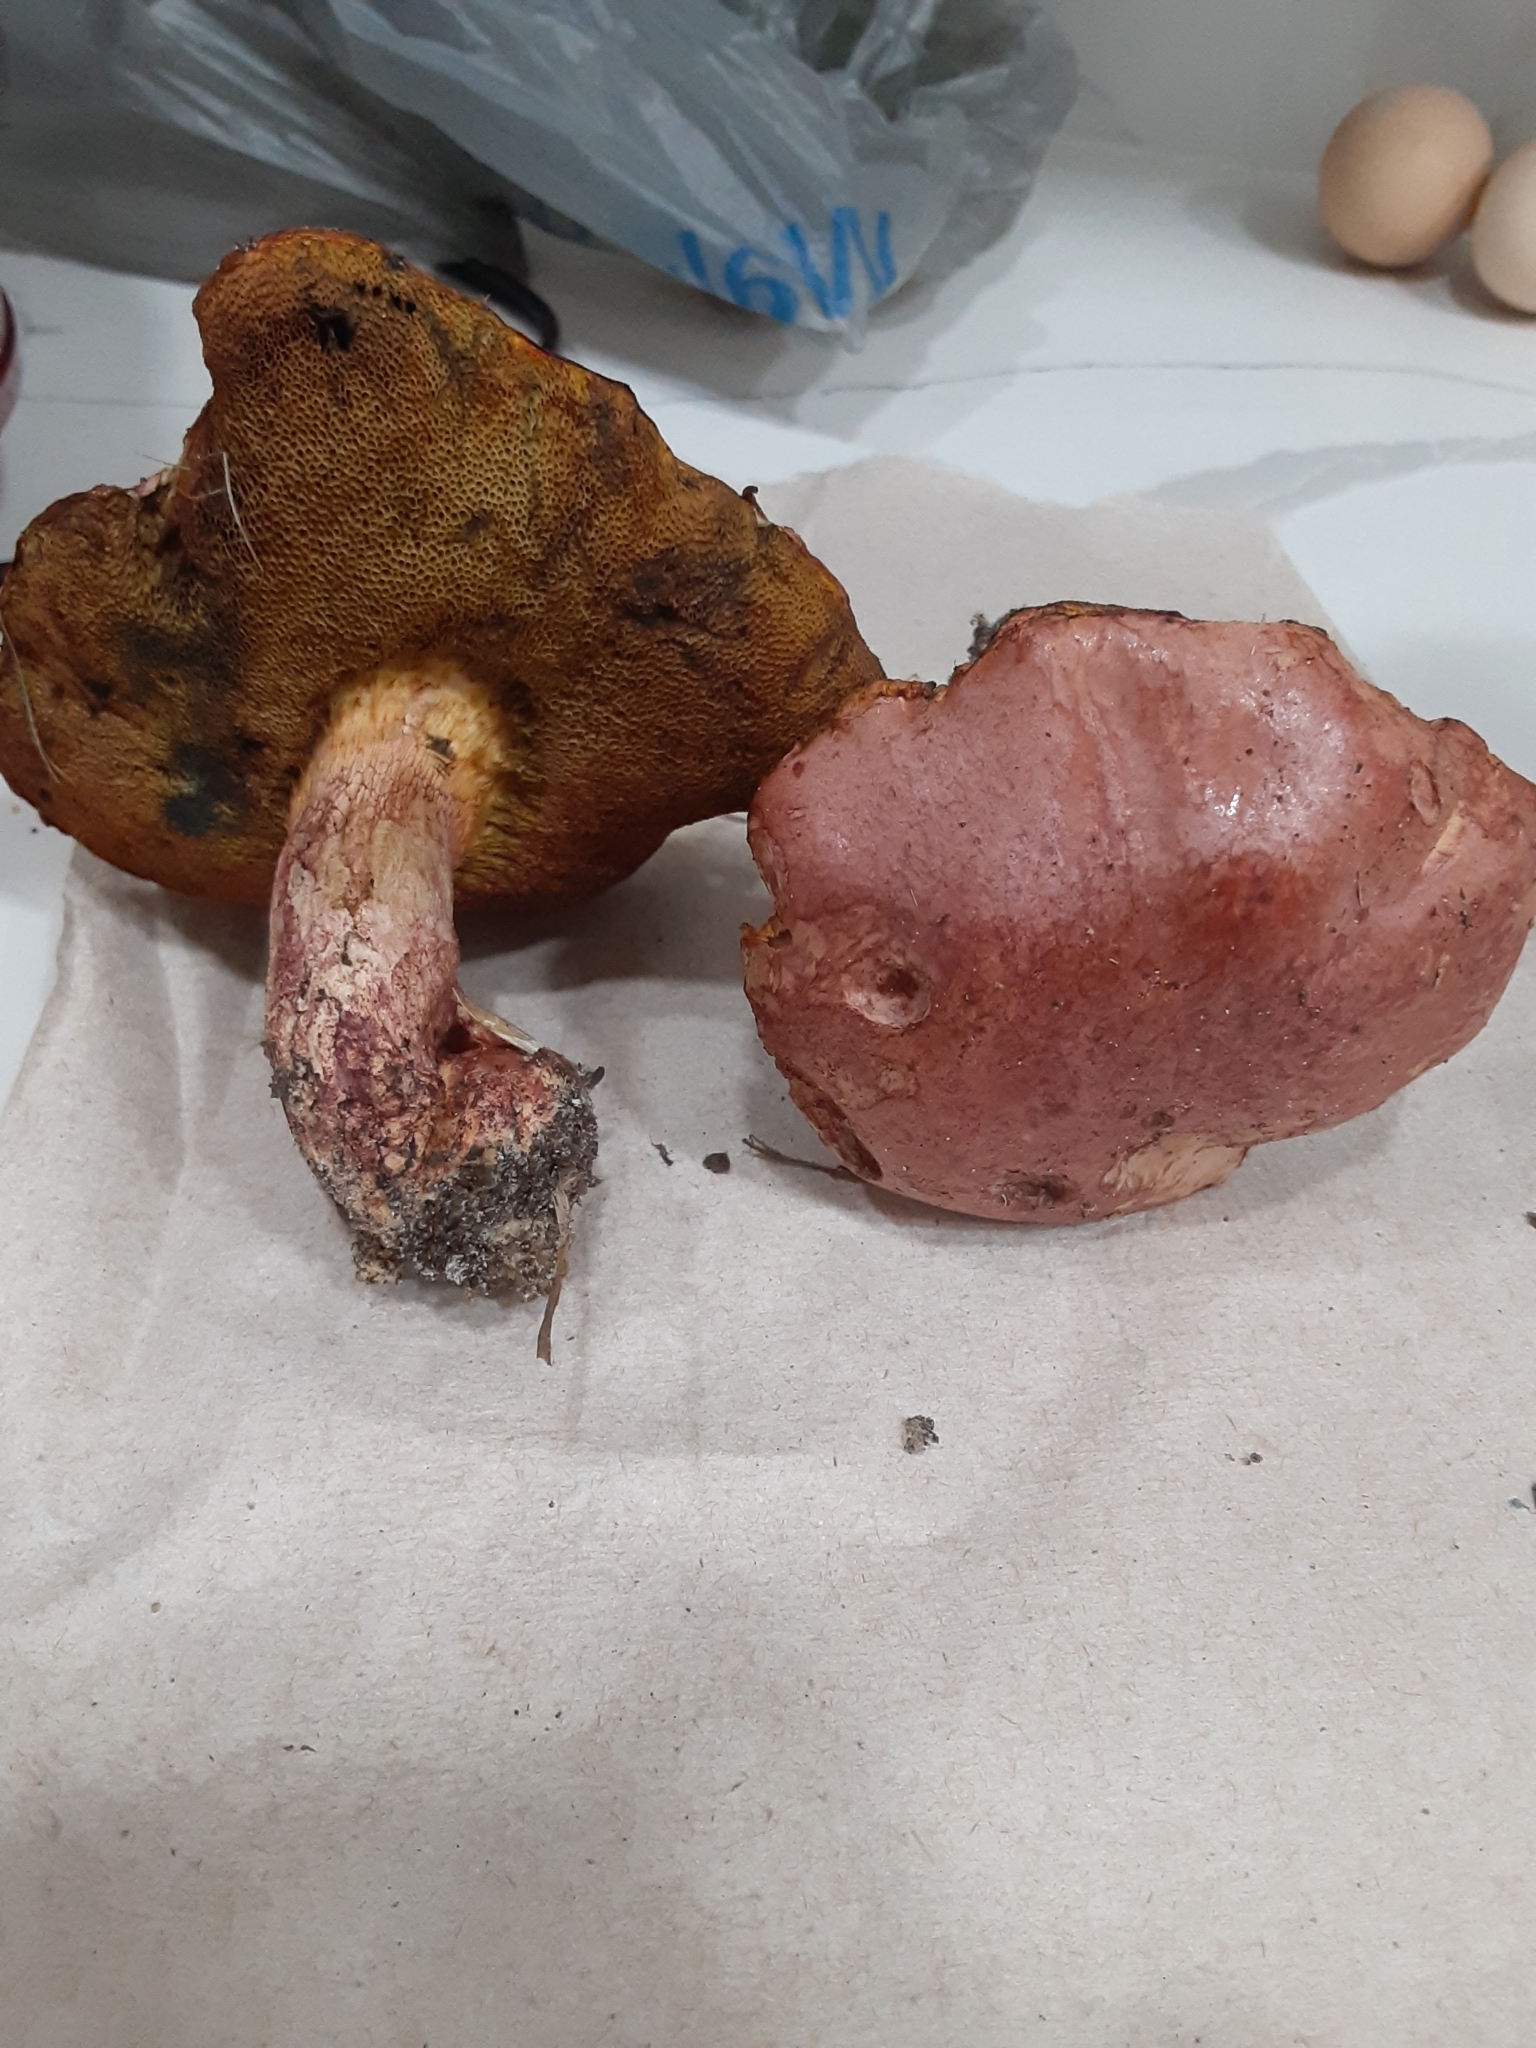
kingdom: Fungi
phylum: Basidiomycota
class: Agaricomycetes
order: Boletales
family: Boletaceae
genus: Butyriboletus
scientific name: Butyriboletus floridanus
